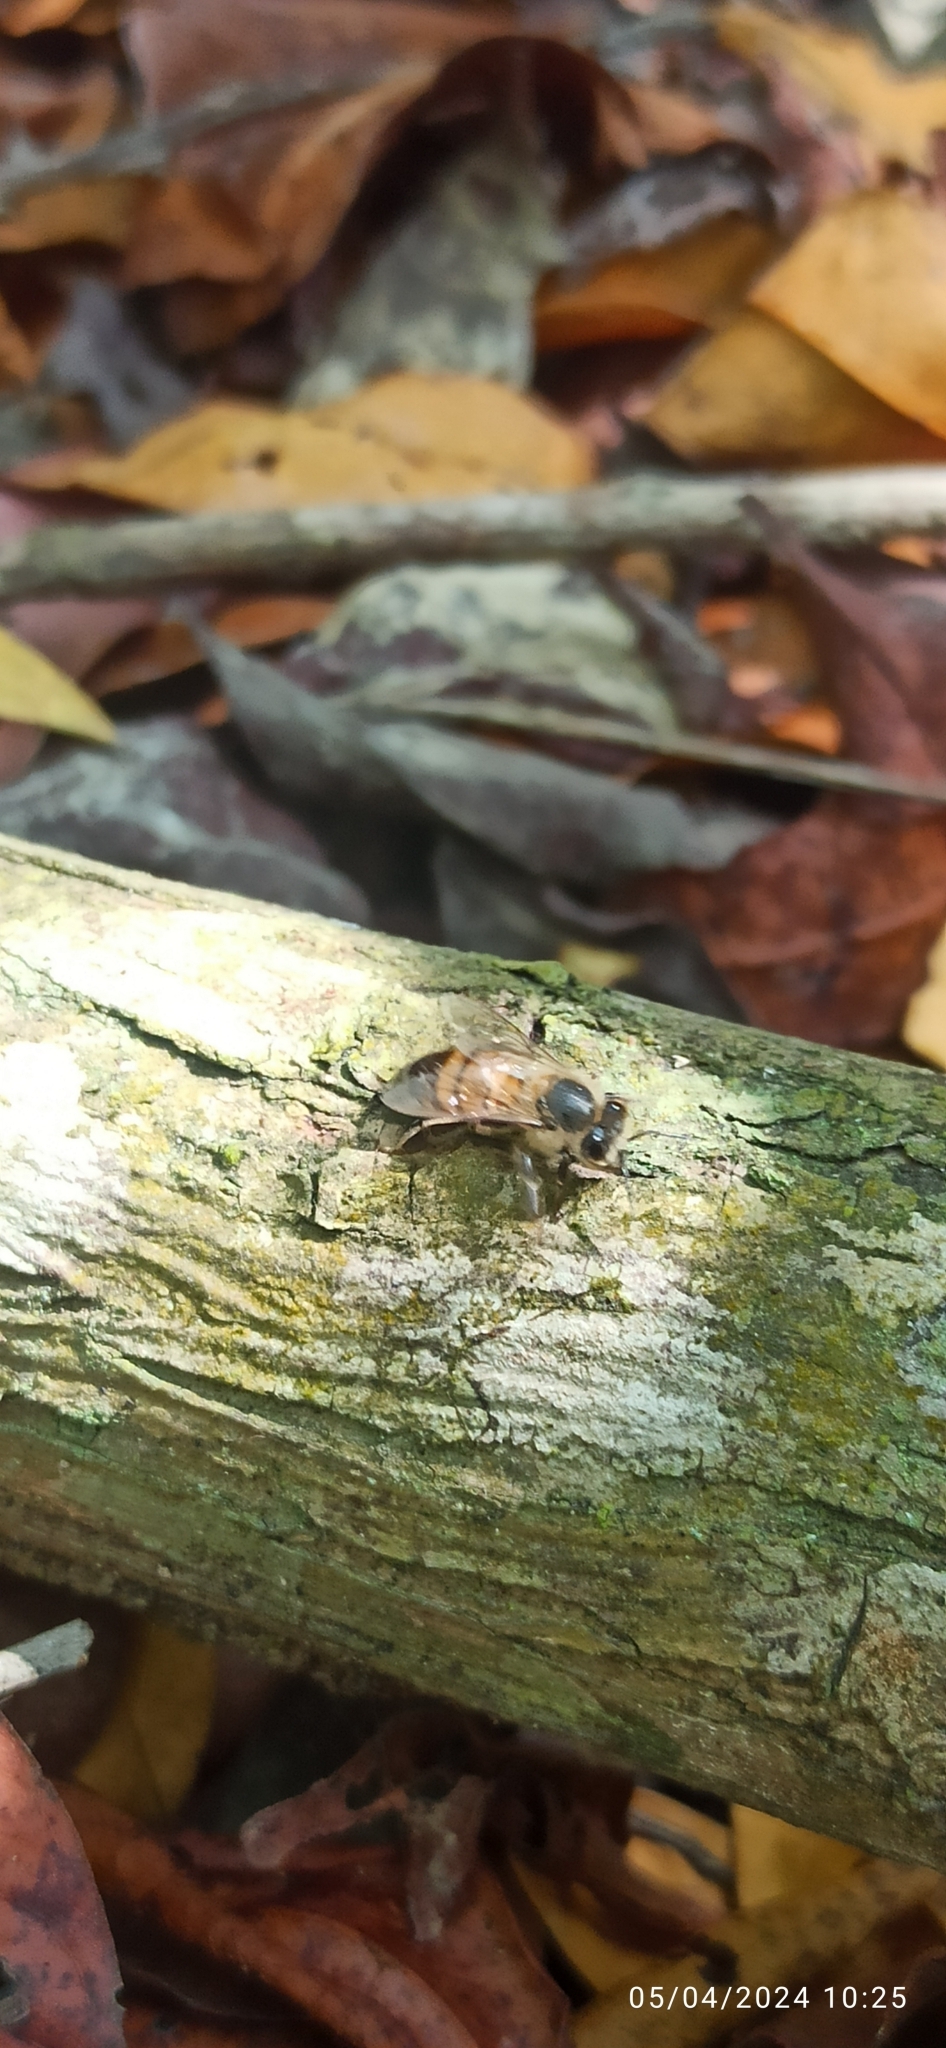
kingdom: Animalia
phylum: Arthropoda
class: Insecta
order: Hymenoptera
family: Apidae
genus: Apis
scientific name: Apis mellifera
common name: Honey bee
